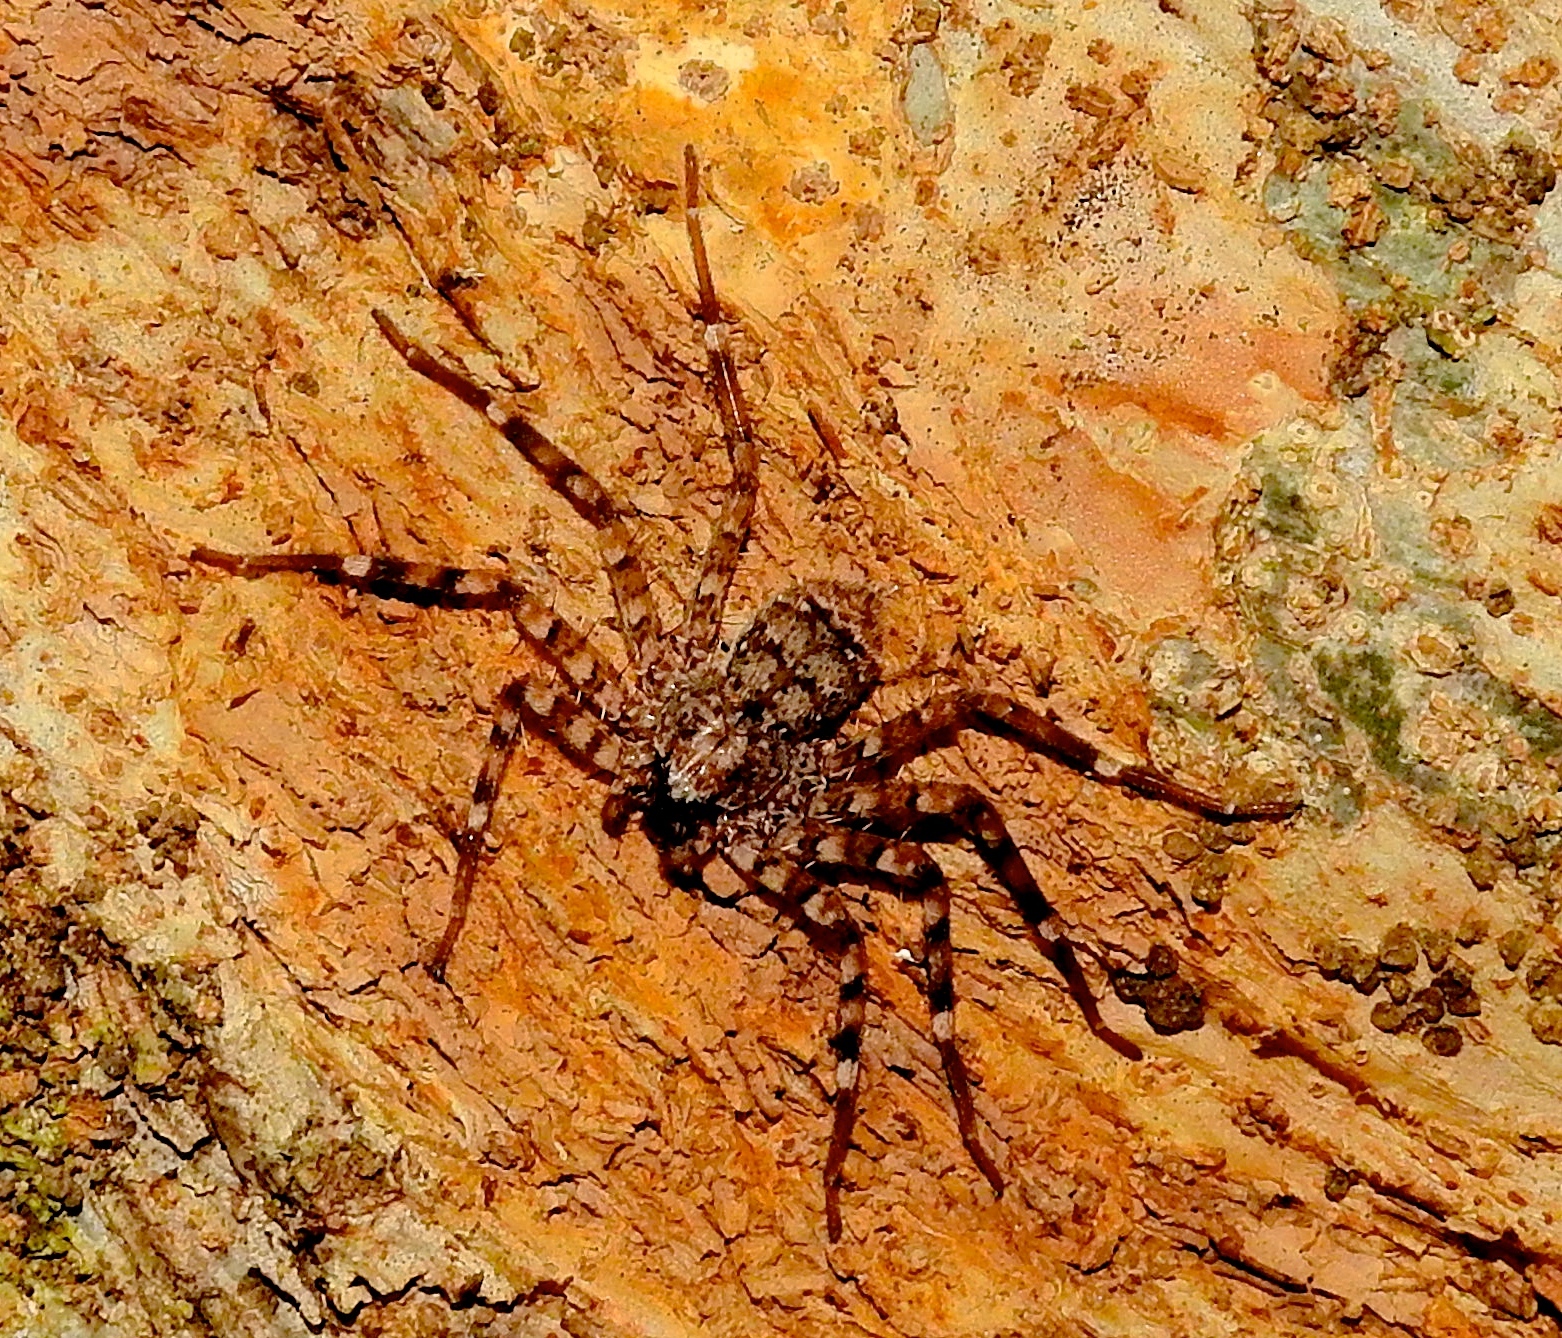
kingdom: Animalia
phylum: Arthropoda
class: Arachnida
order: Araneae
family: Selenopidae
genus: Selenops
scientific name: Selenops mexicanus
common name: Wall crab spiders
